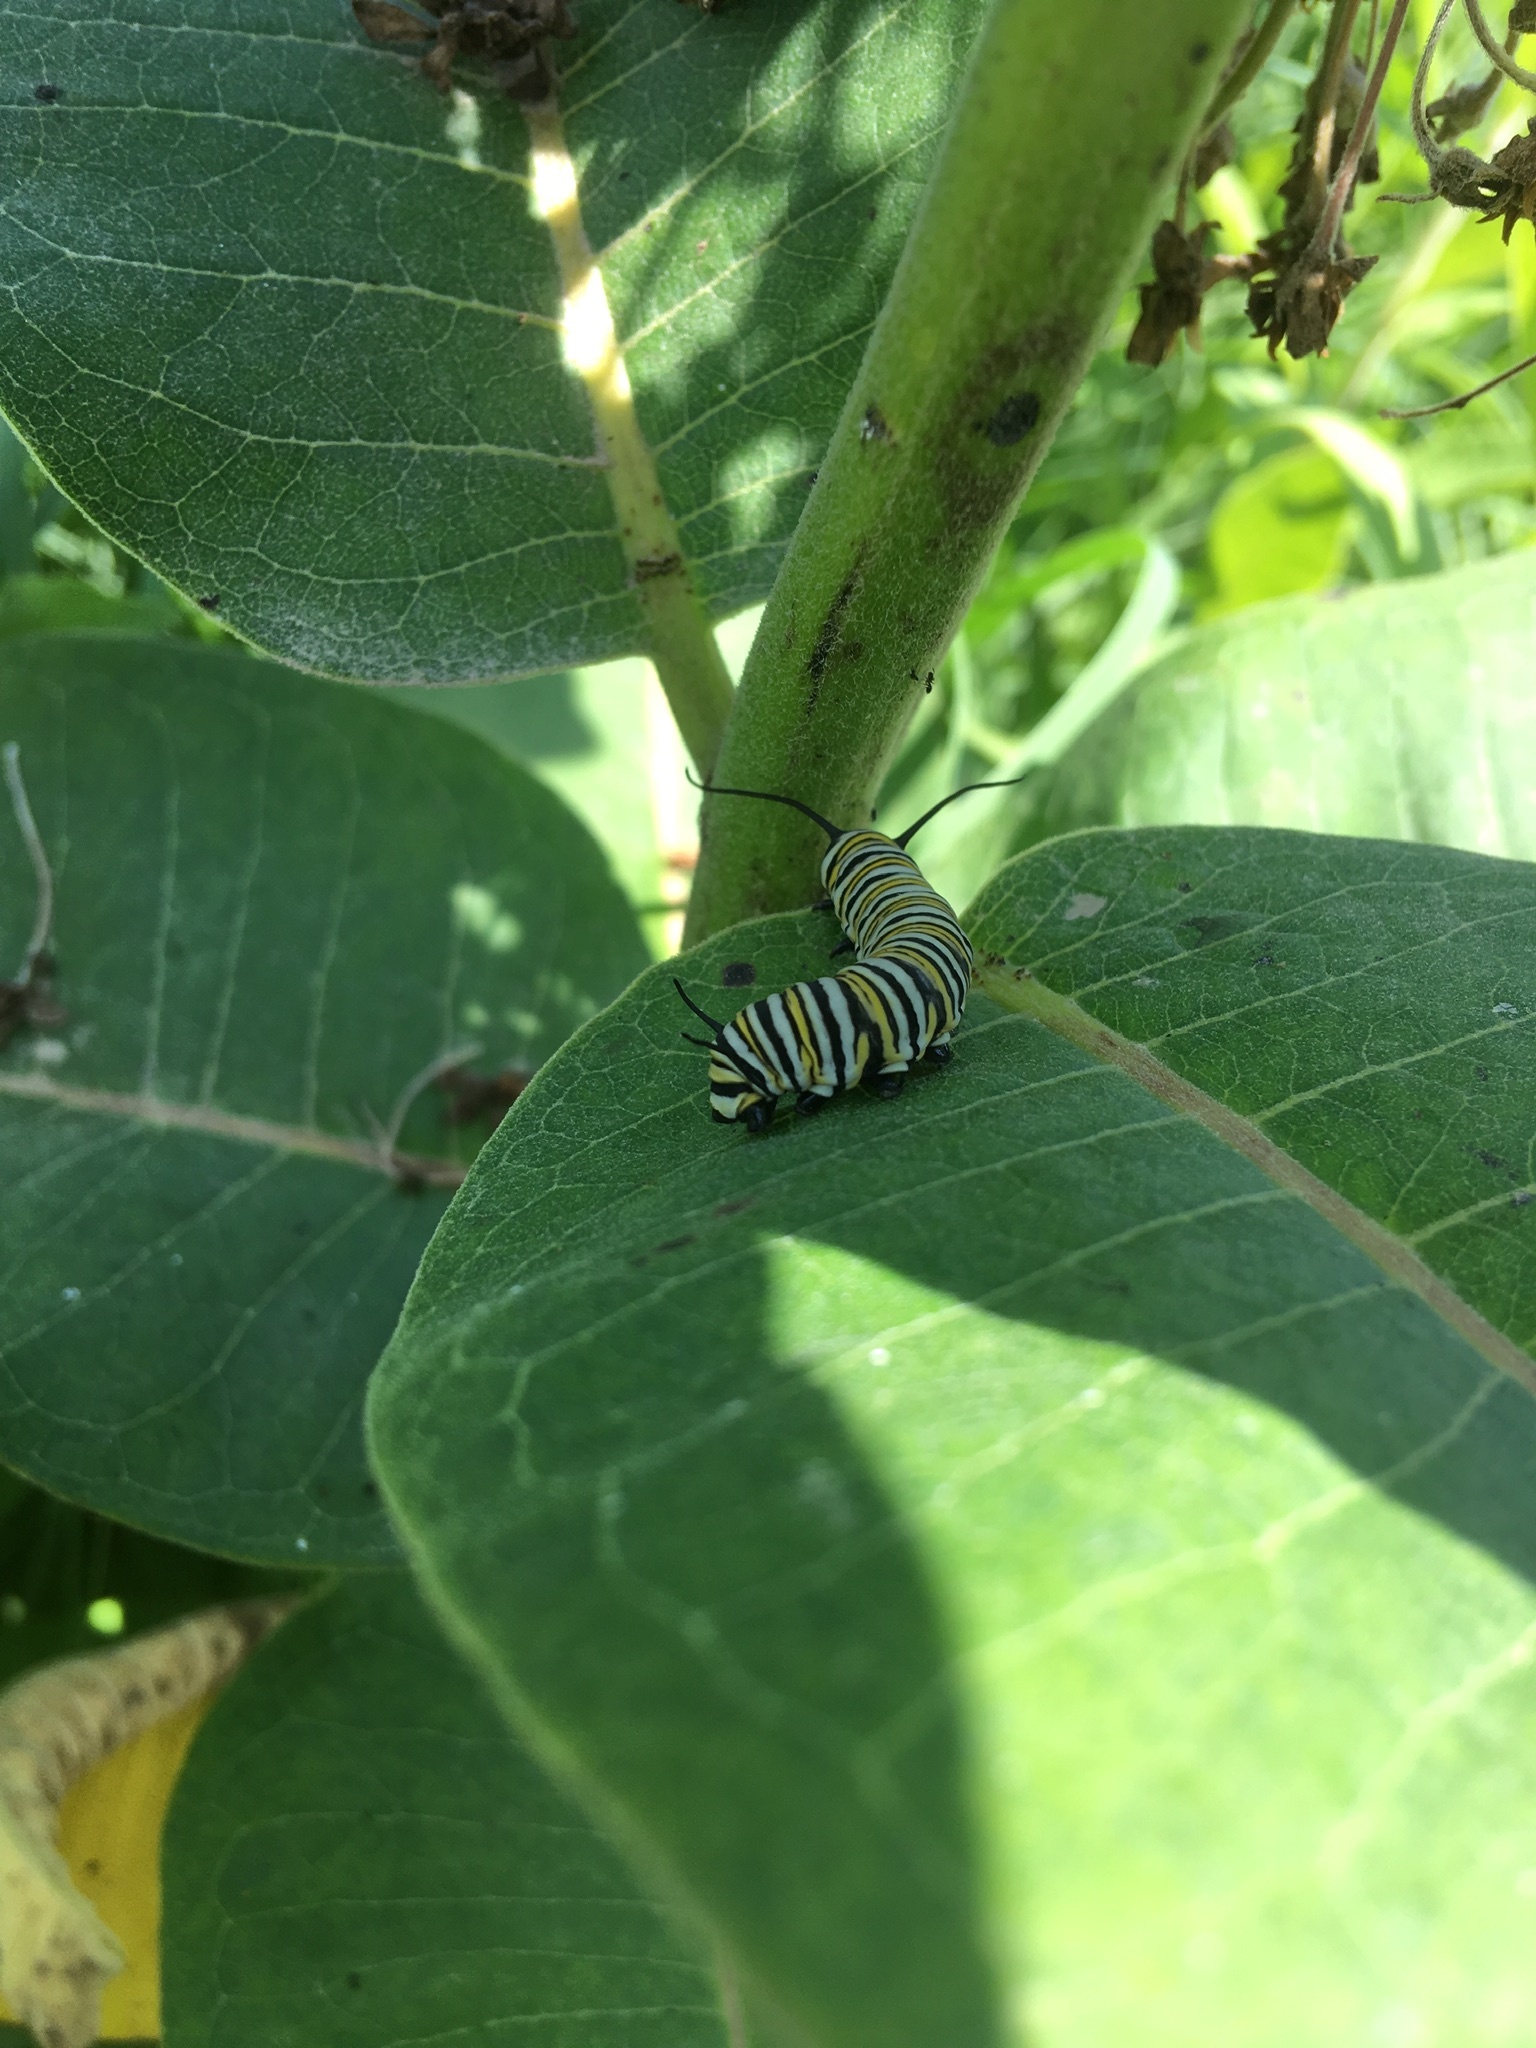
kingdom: Animalia
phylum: Arthropoda
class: Insecta
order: Lepidoptera
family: Nymphalidae
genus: Danaus
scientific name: Danaus plexippus
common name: Monarch
